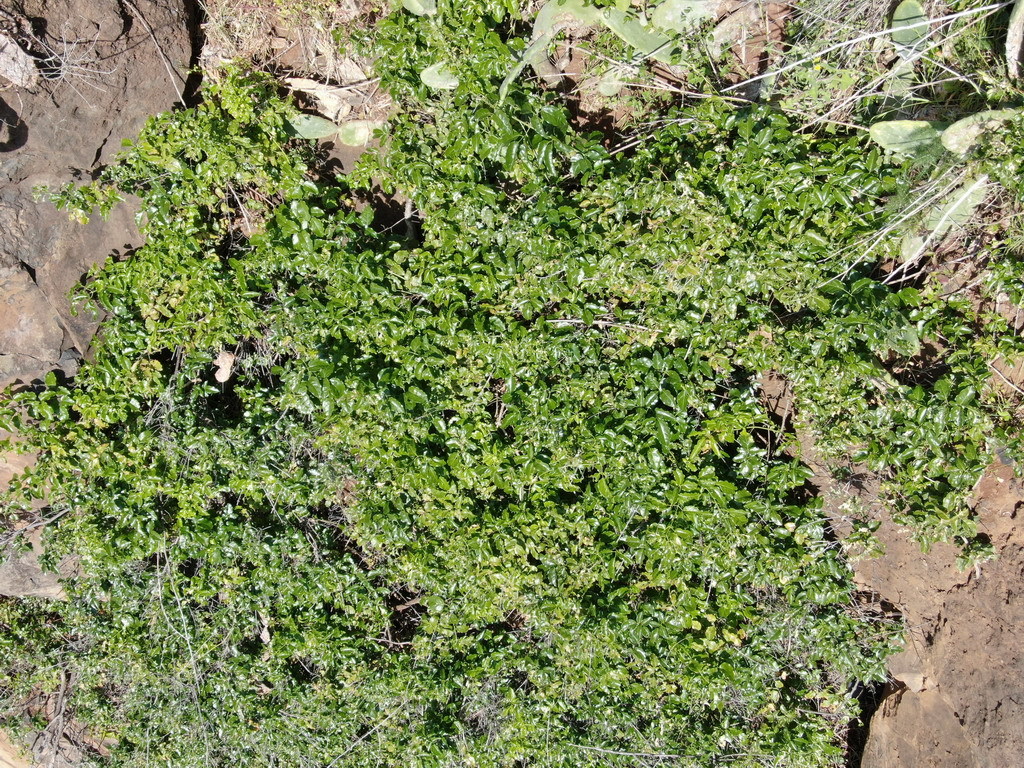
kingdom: Plantae
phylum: Tracheophyta
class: Magnoliopsida
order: Lamiales
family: Oleaceae
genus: Jasminum
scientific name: Jasminum azoricum
